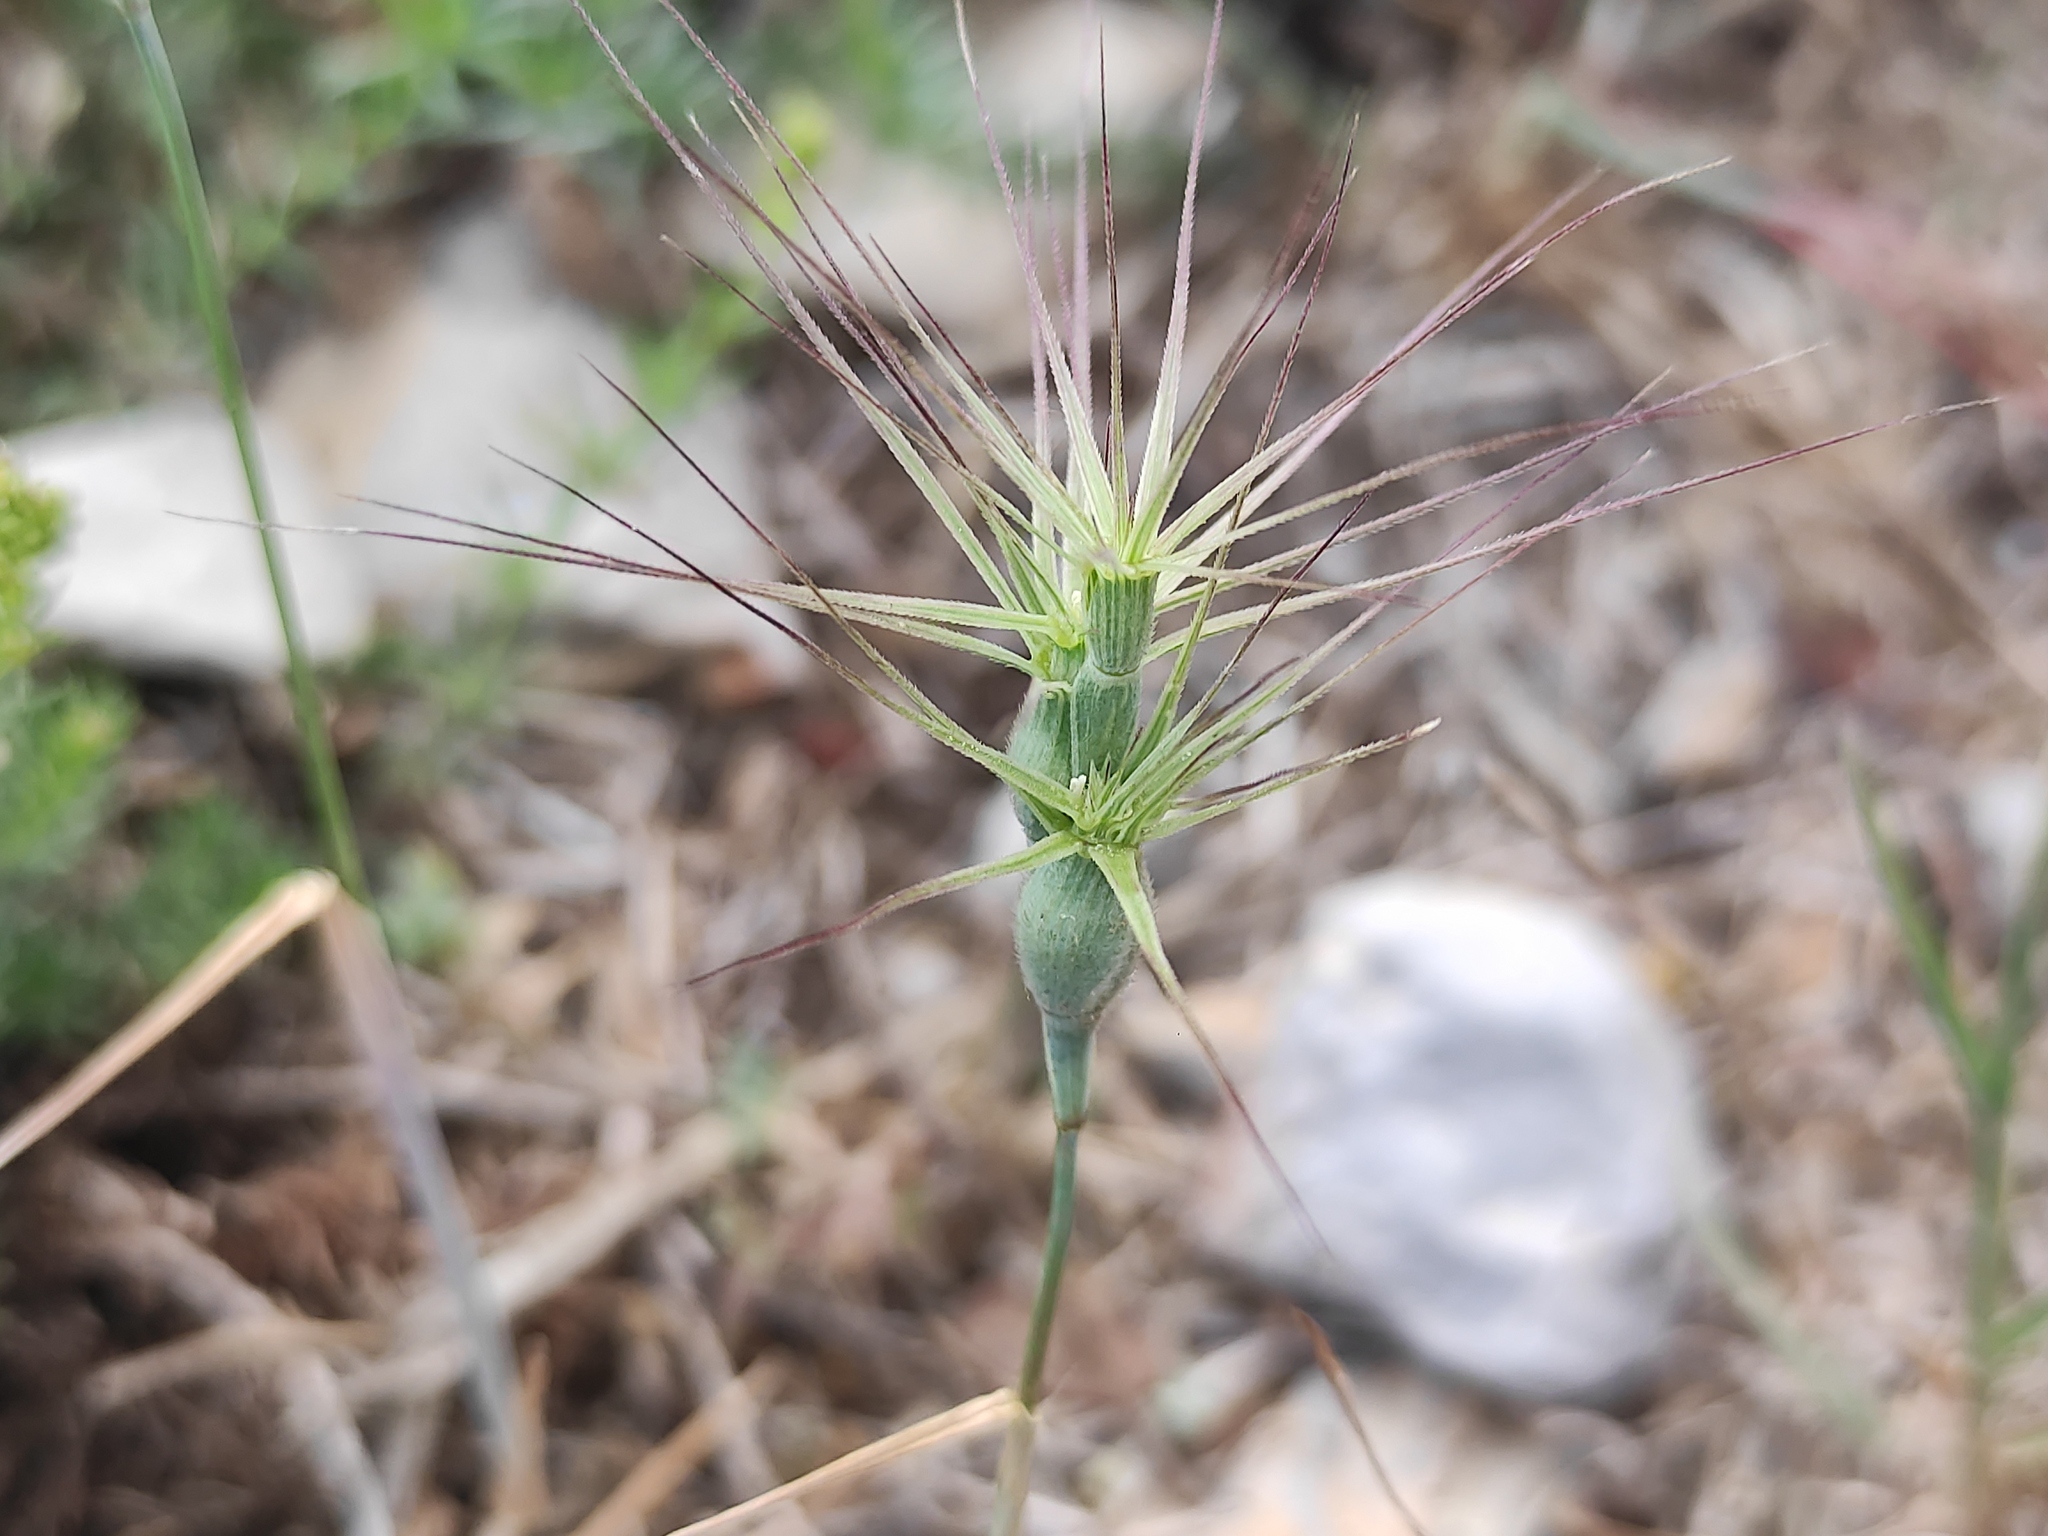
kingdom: Plantae
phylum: Tracheophyta
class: Liliopsida
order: Poales
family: Poaceae
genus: Aegilops
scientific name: Aegilops geniculata
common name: Ovate goat grass
